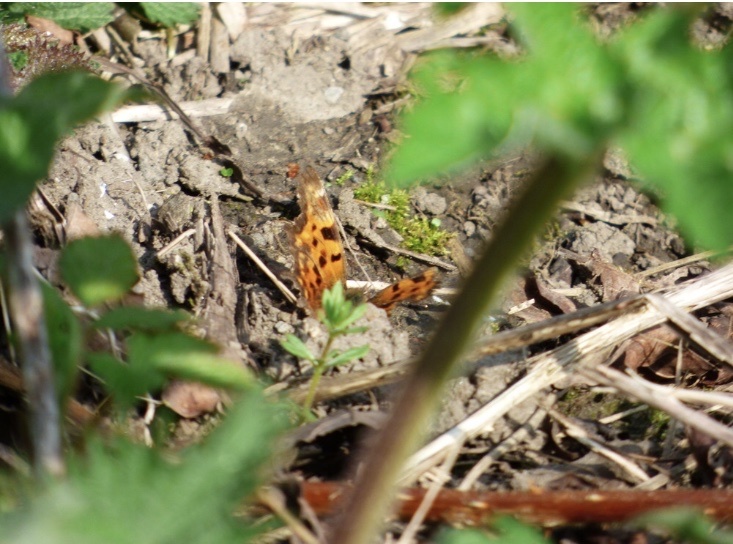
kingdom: Animalia
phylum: Arthropoda
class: Insecta
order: Lepidoptera
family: Nymphalidae
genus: Polygonia
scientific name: Polygonia c-album
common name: Comma
